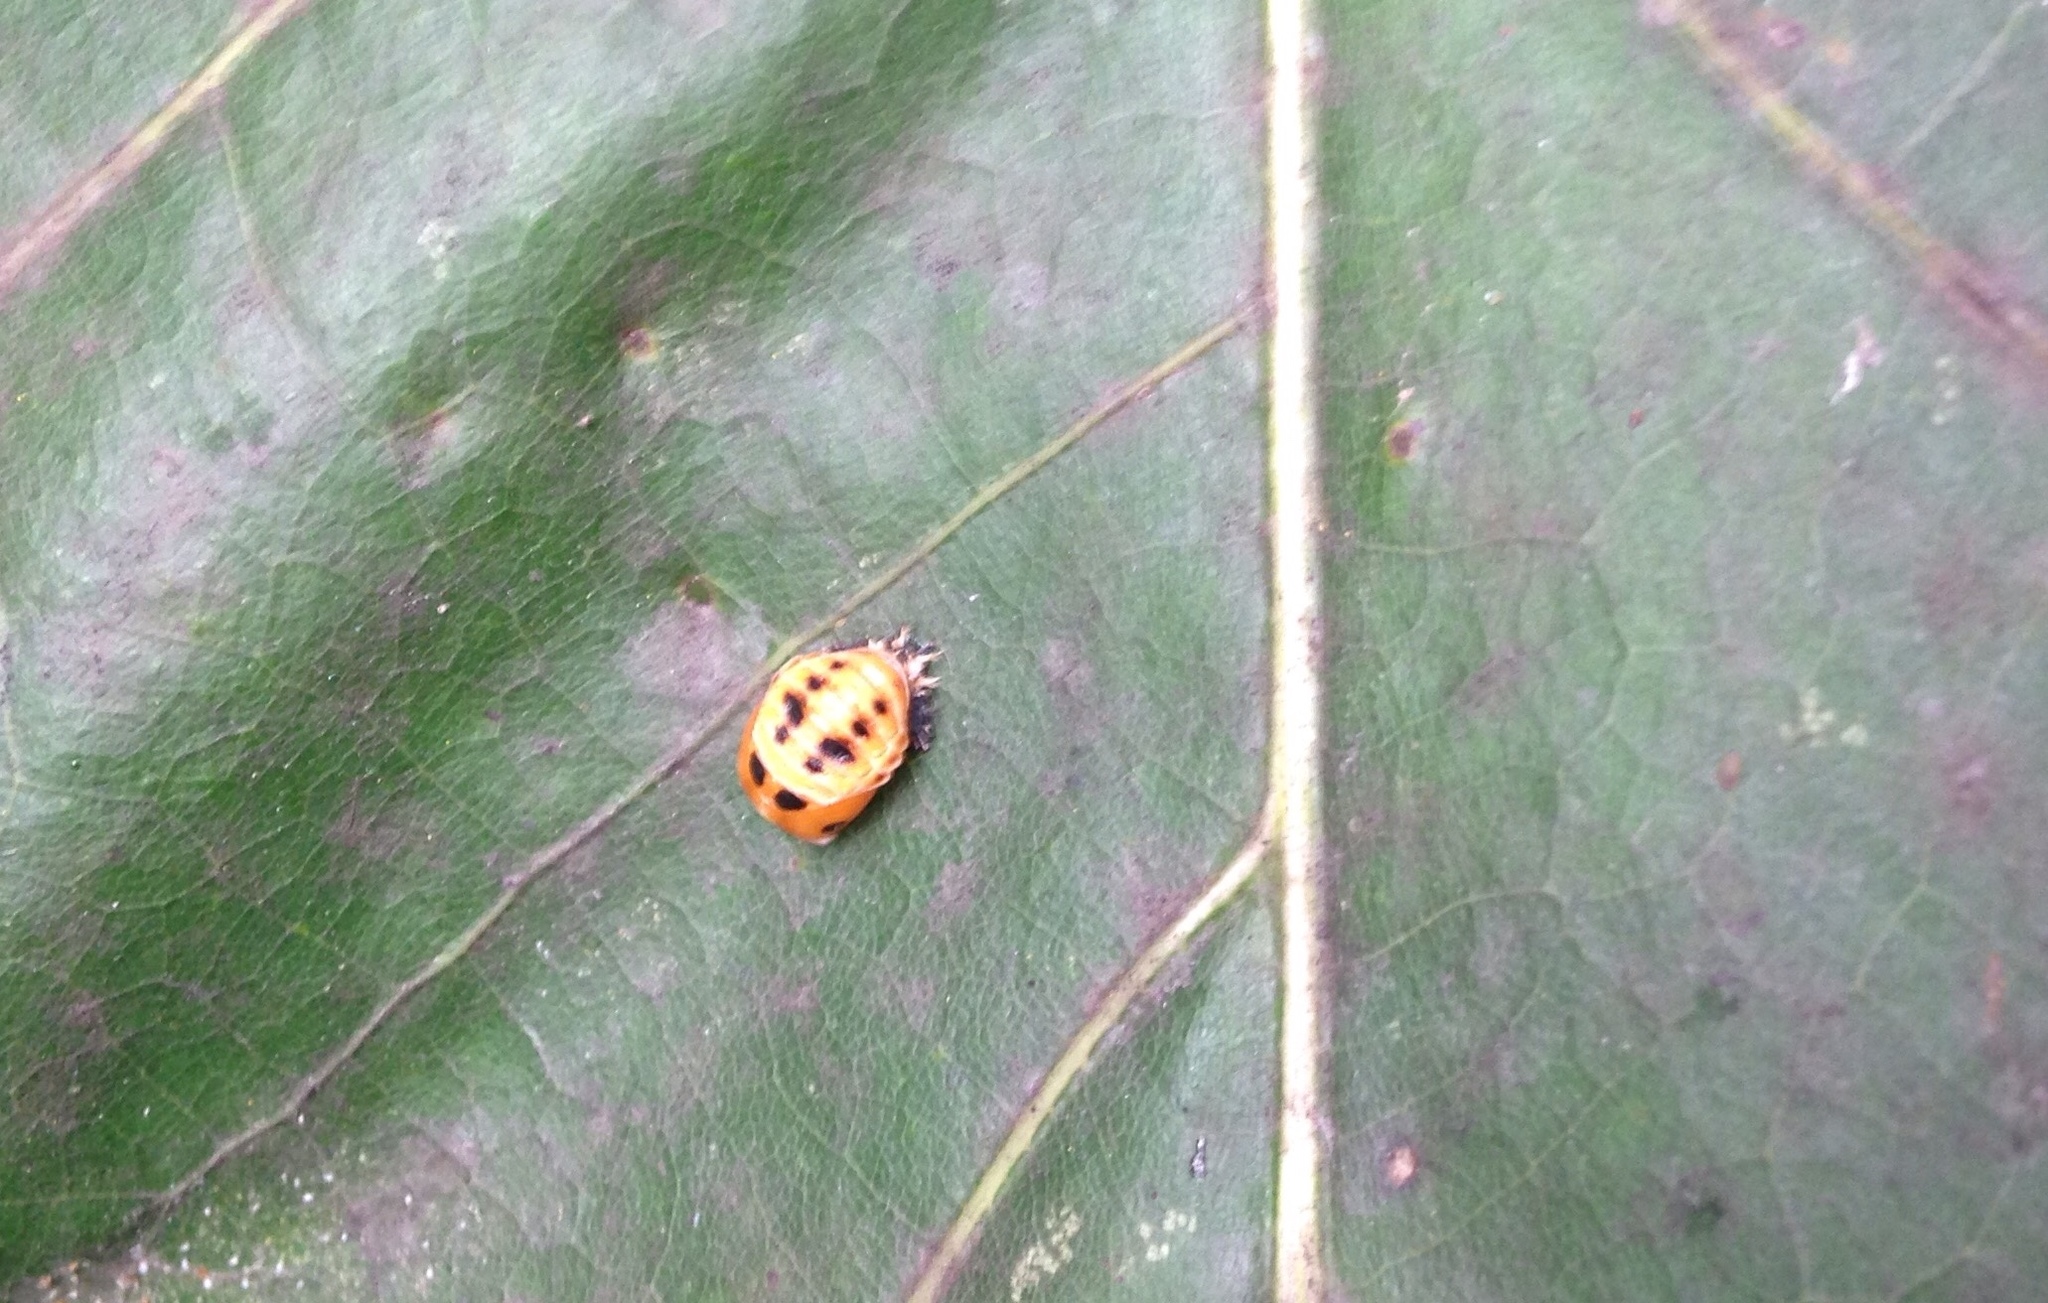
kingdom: Animalia
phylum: Arthropoda
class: Insecta
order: Coleoptera
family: Coccinellidae
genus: Harmonia
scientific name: Harmonia axyridis
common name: Harlequin ladybird
